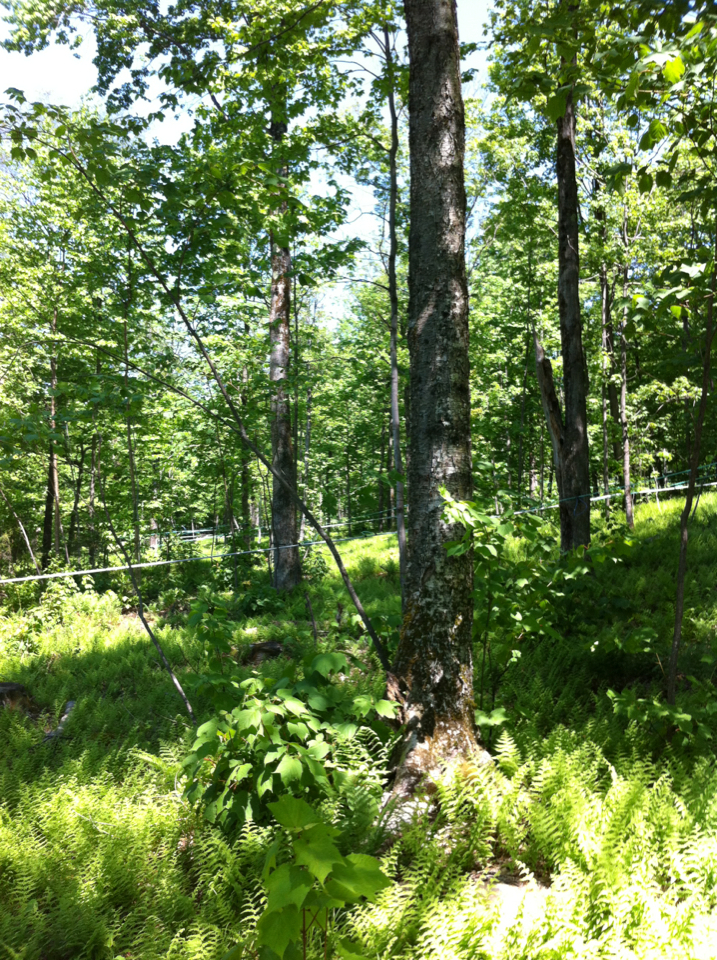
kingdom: Plantae
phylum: Tracheophyta
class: Magnoliopsida
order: Sapindales
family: Sapindaceae
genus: Acer
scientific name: Acer saccharum
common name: Sugar maple
